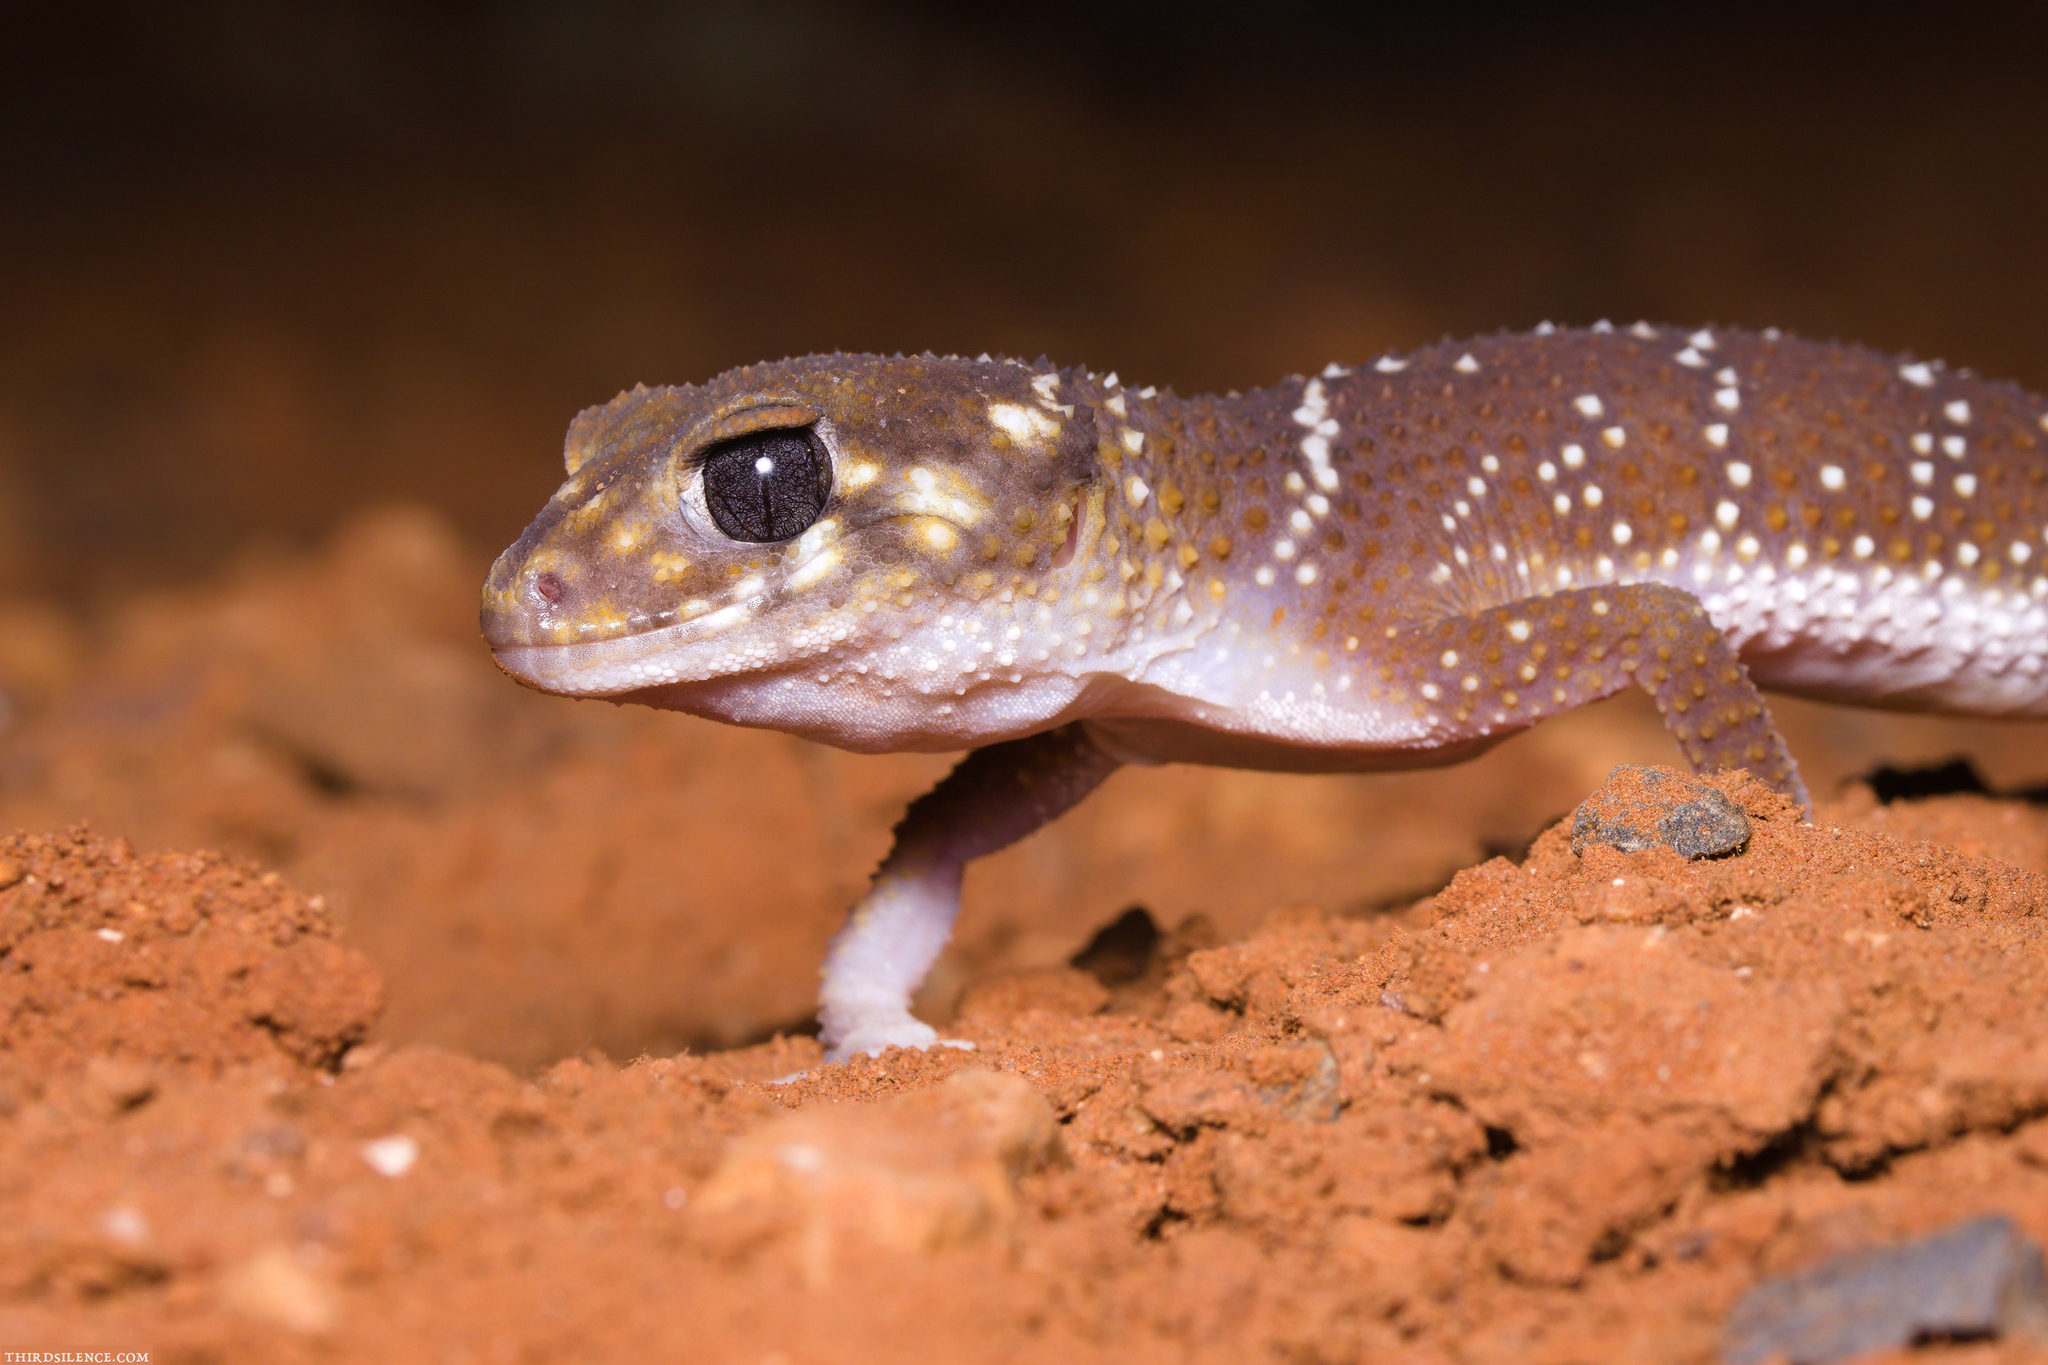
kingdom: Animalia
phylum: Chordata
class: Squamata
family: Carphodactylidae
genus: Underwoodisaurus
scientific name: Underwoodisaurus milii
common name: Barking gecko
